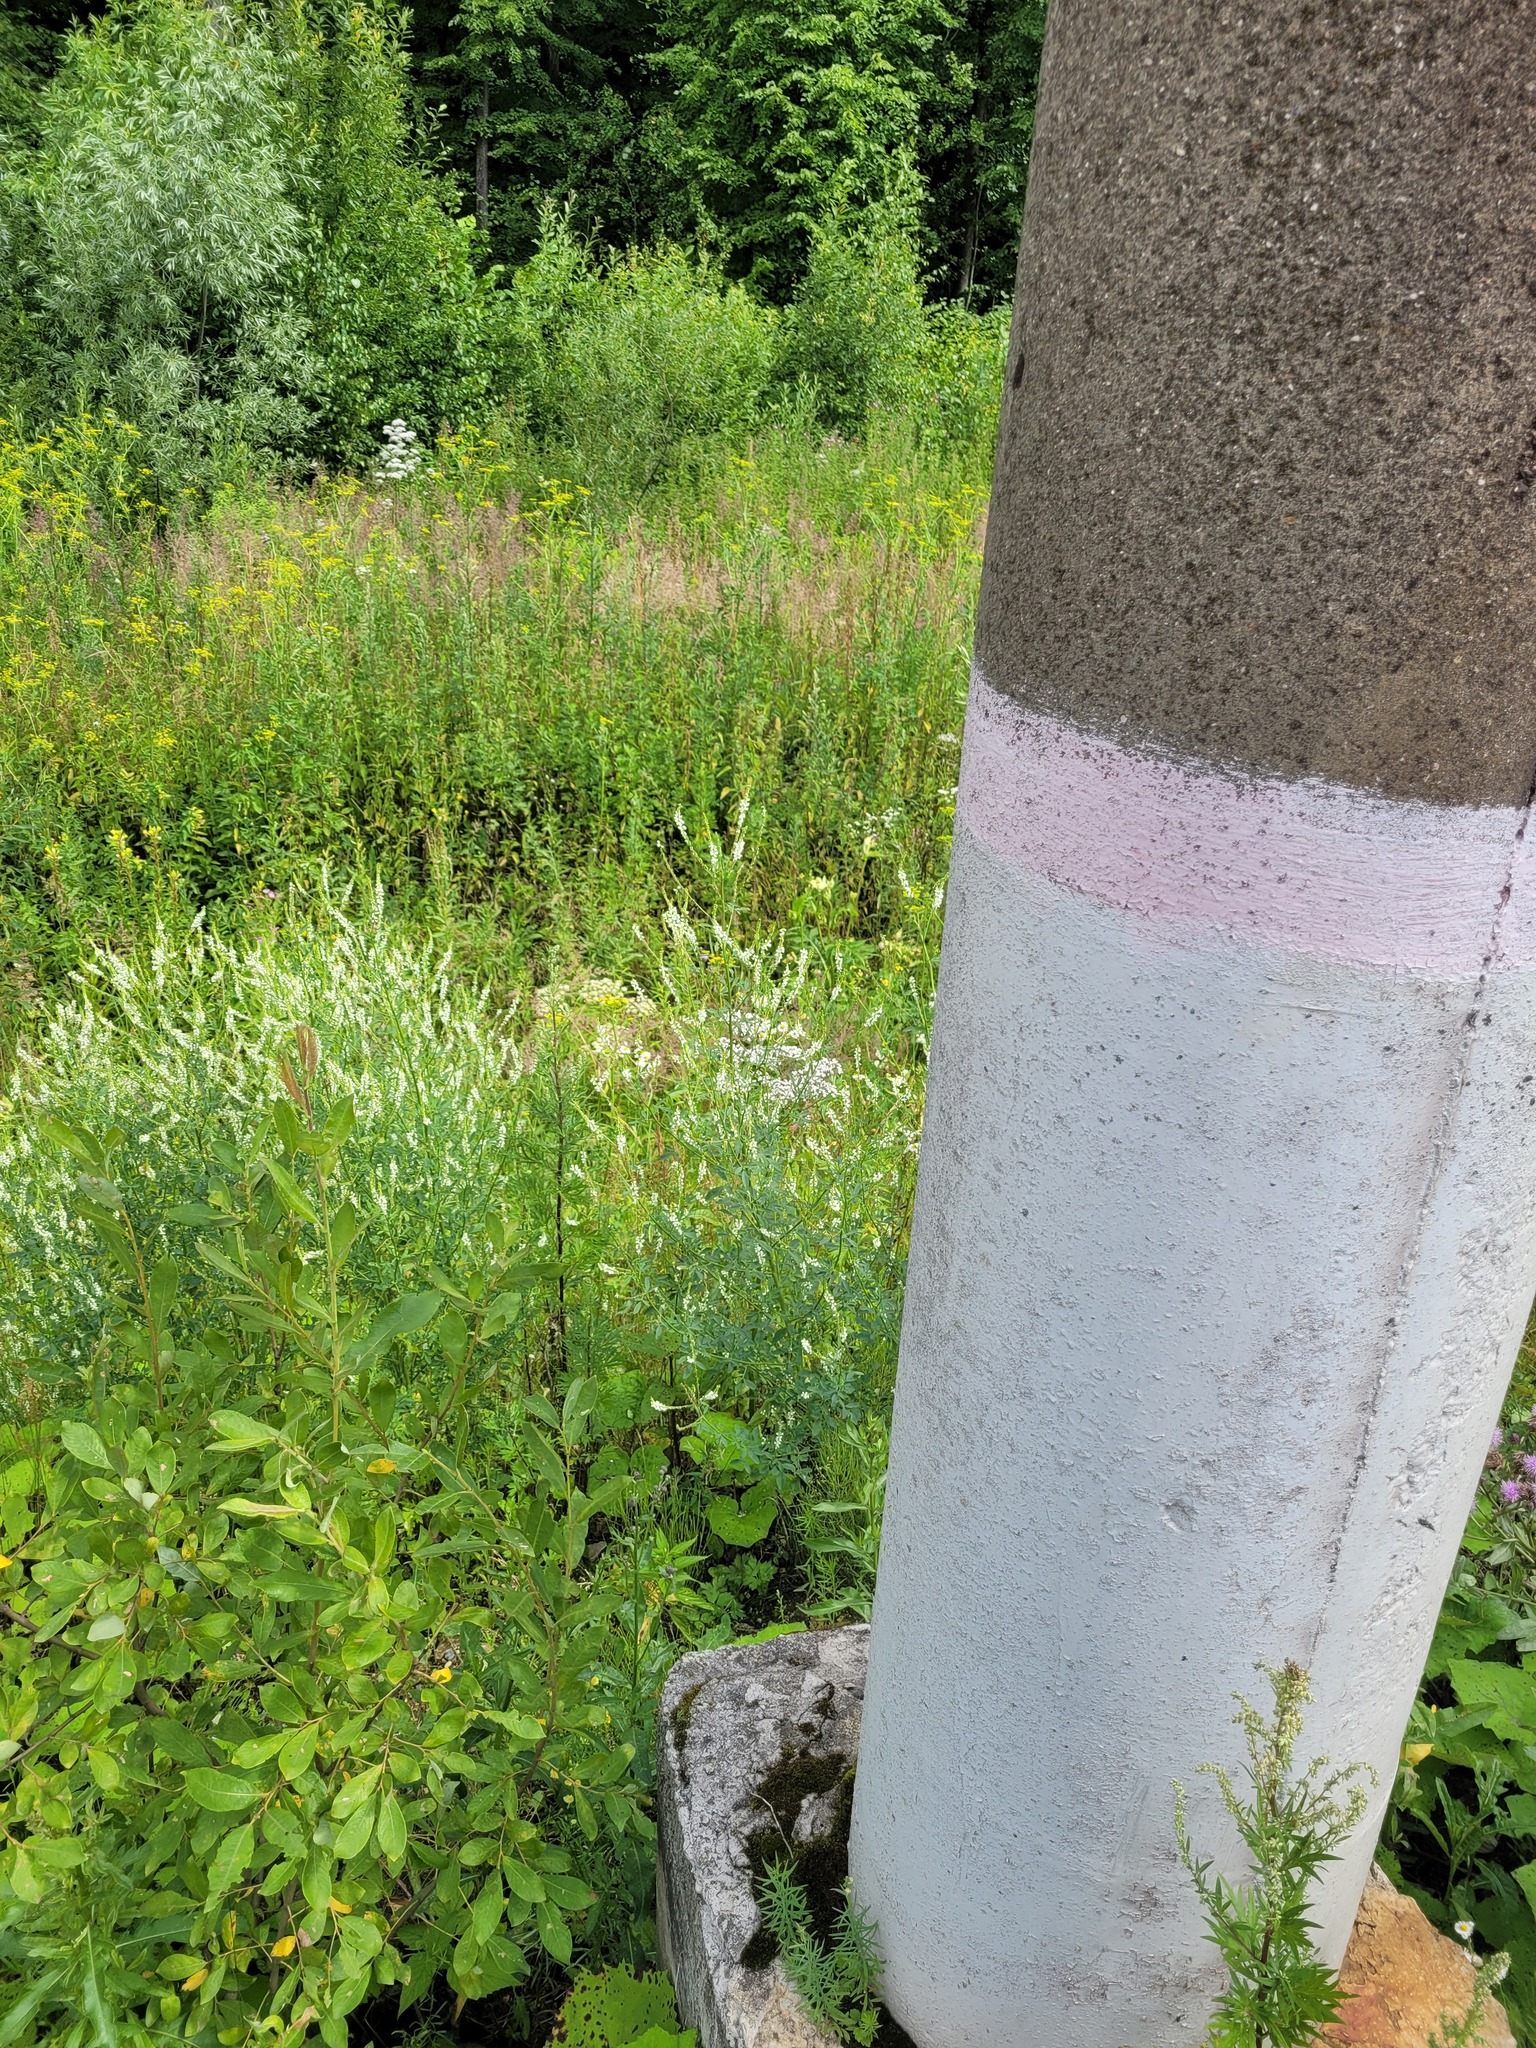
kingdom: Plantae
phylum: Tracheophyta
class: Magnoliopsida
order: Fabales
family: Fabaceae
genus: Melilotus
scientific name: Melilotus albus
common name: White melilot
